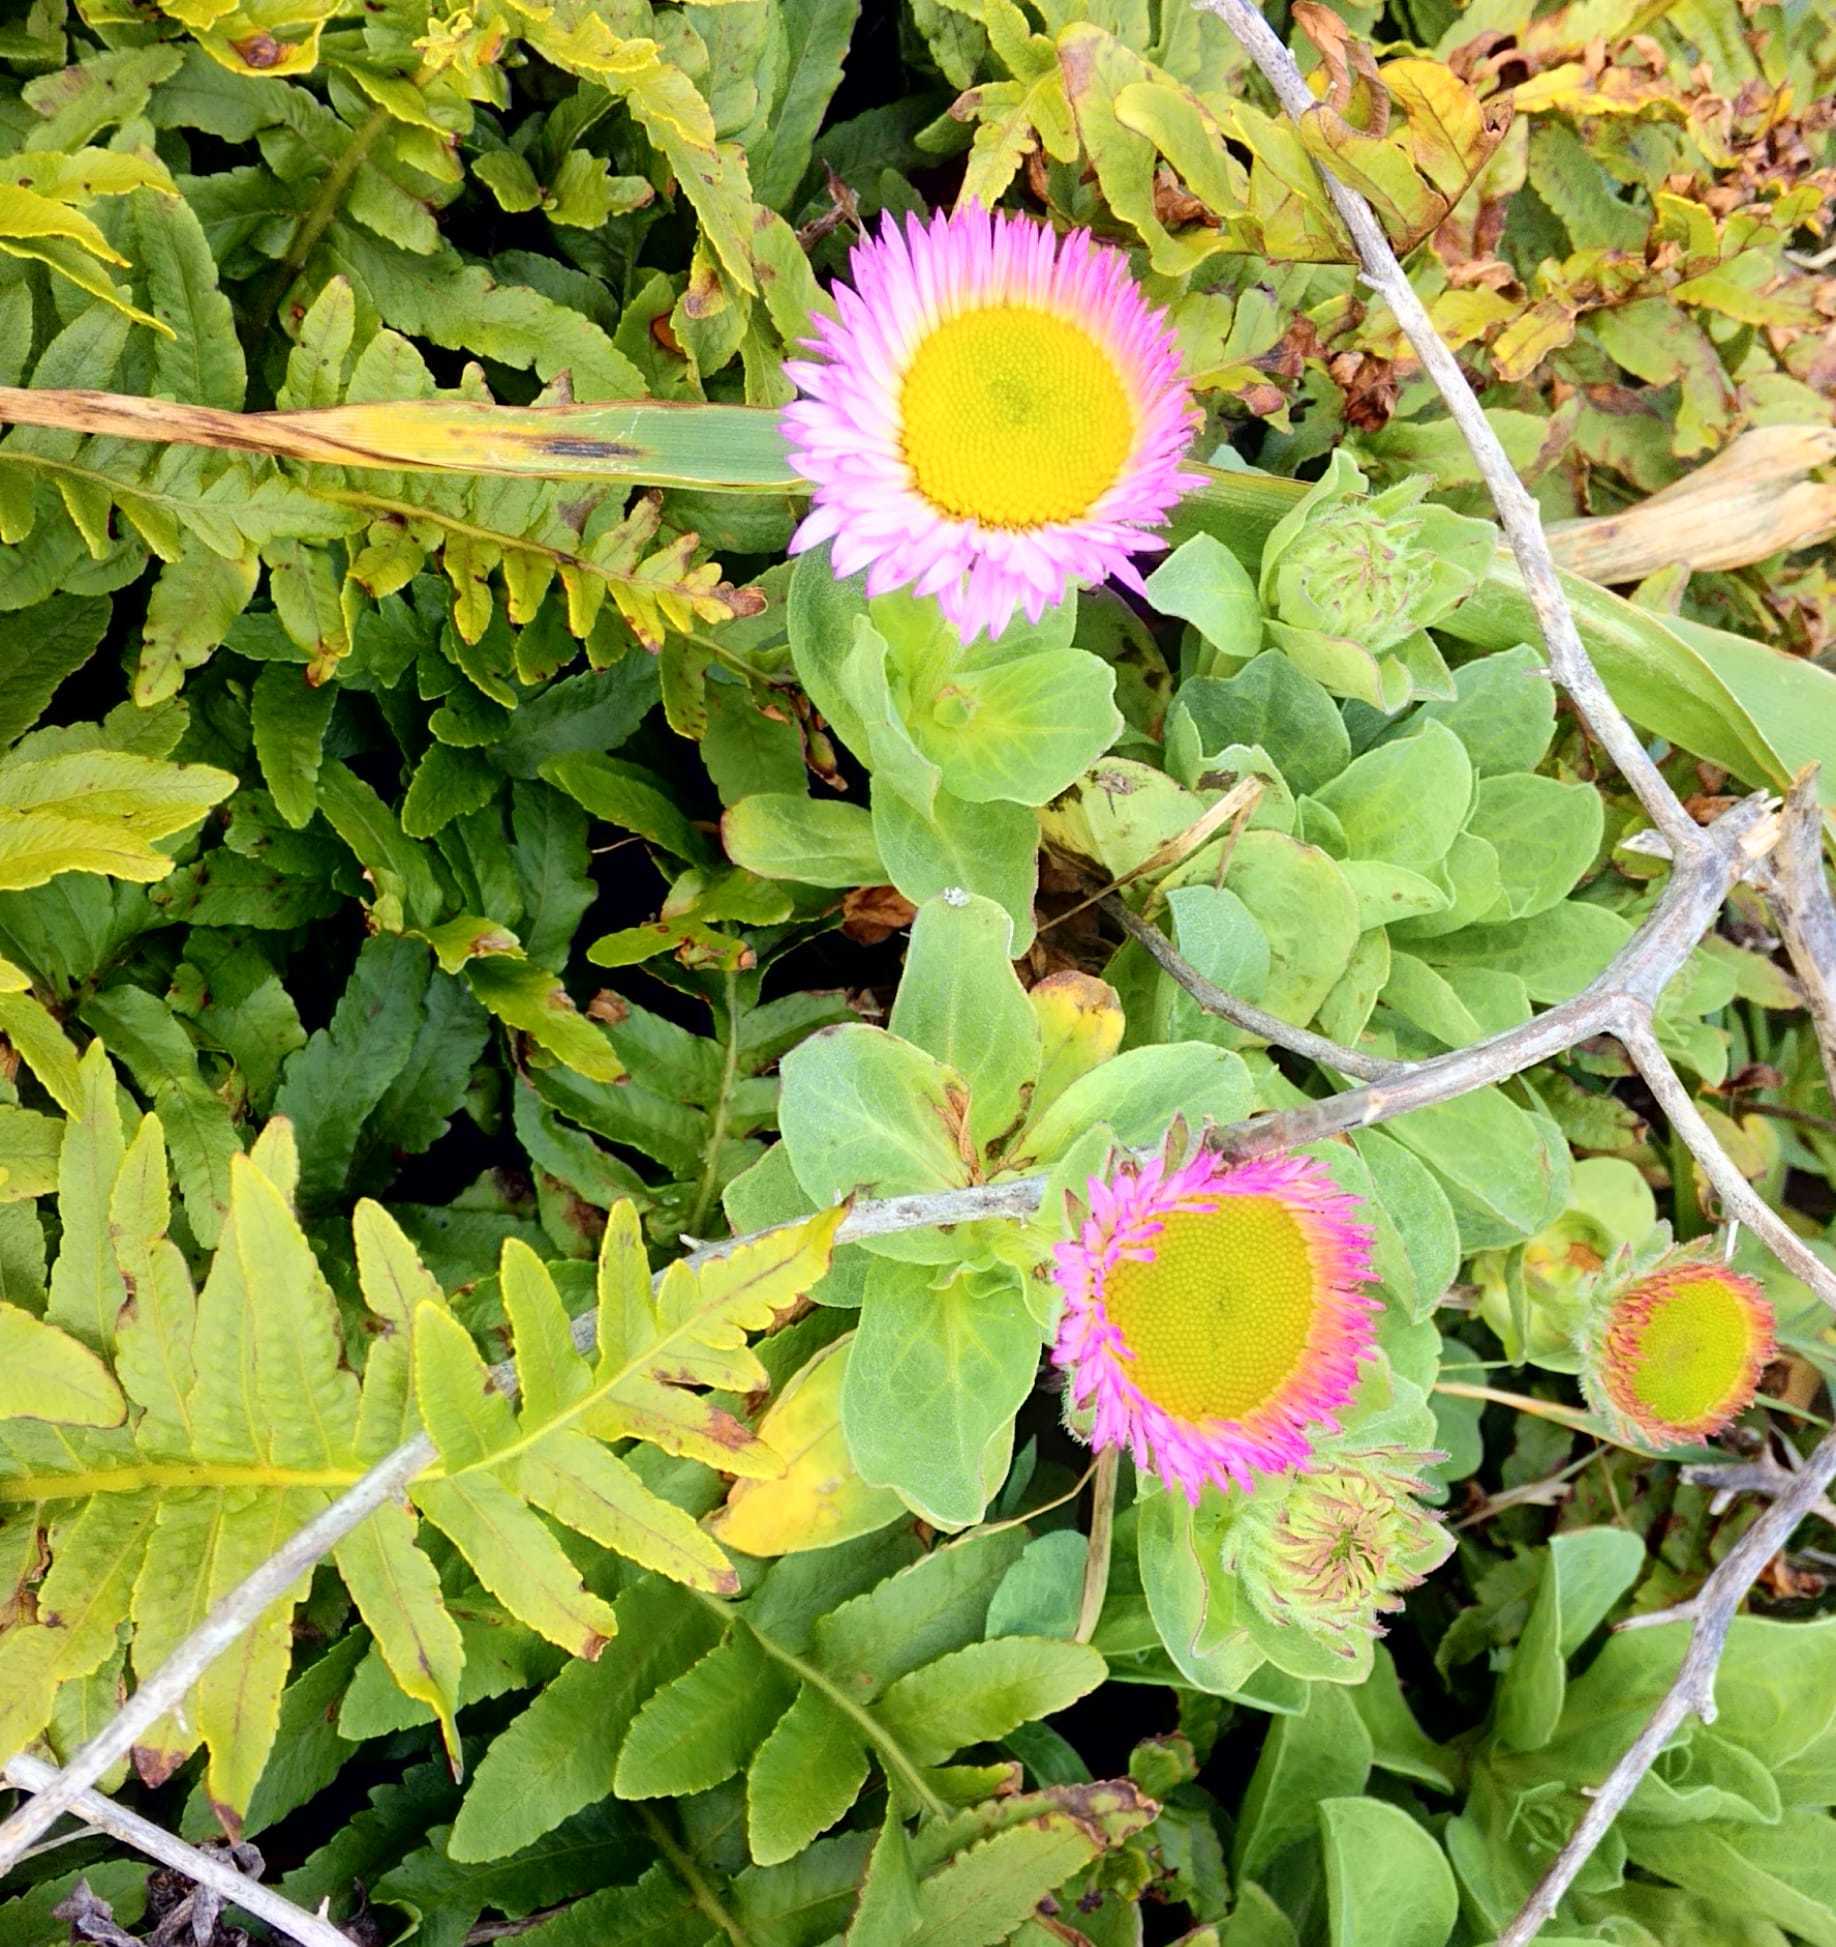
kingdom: Plantae
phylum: Tracheophyta
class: Magnoliopsida
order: Asterales
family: Asteraceae
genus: Erigeron
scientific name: Erigeron glaucus
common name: Seaside daisy
